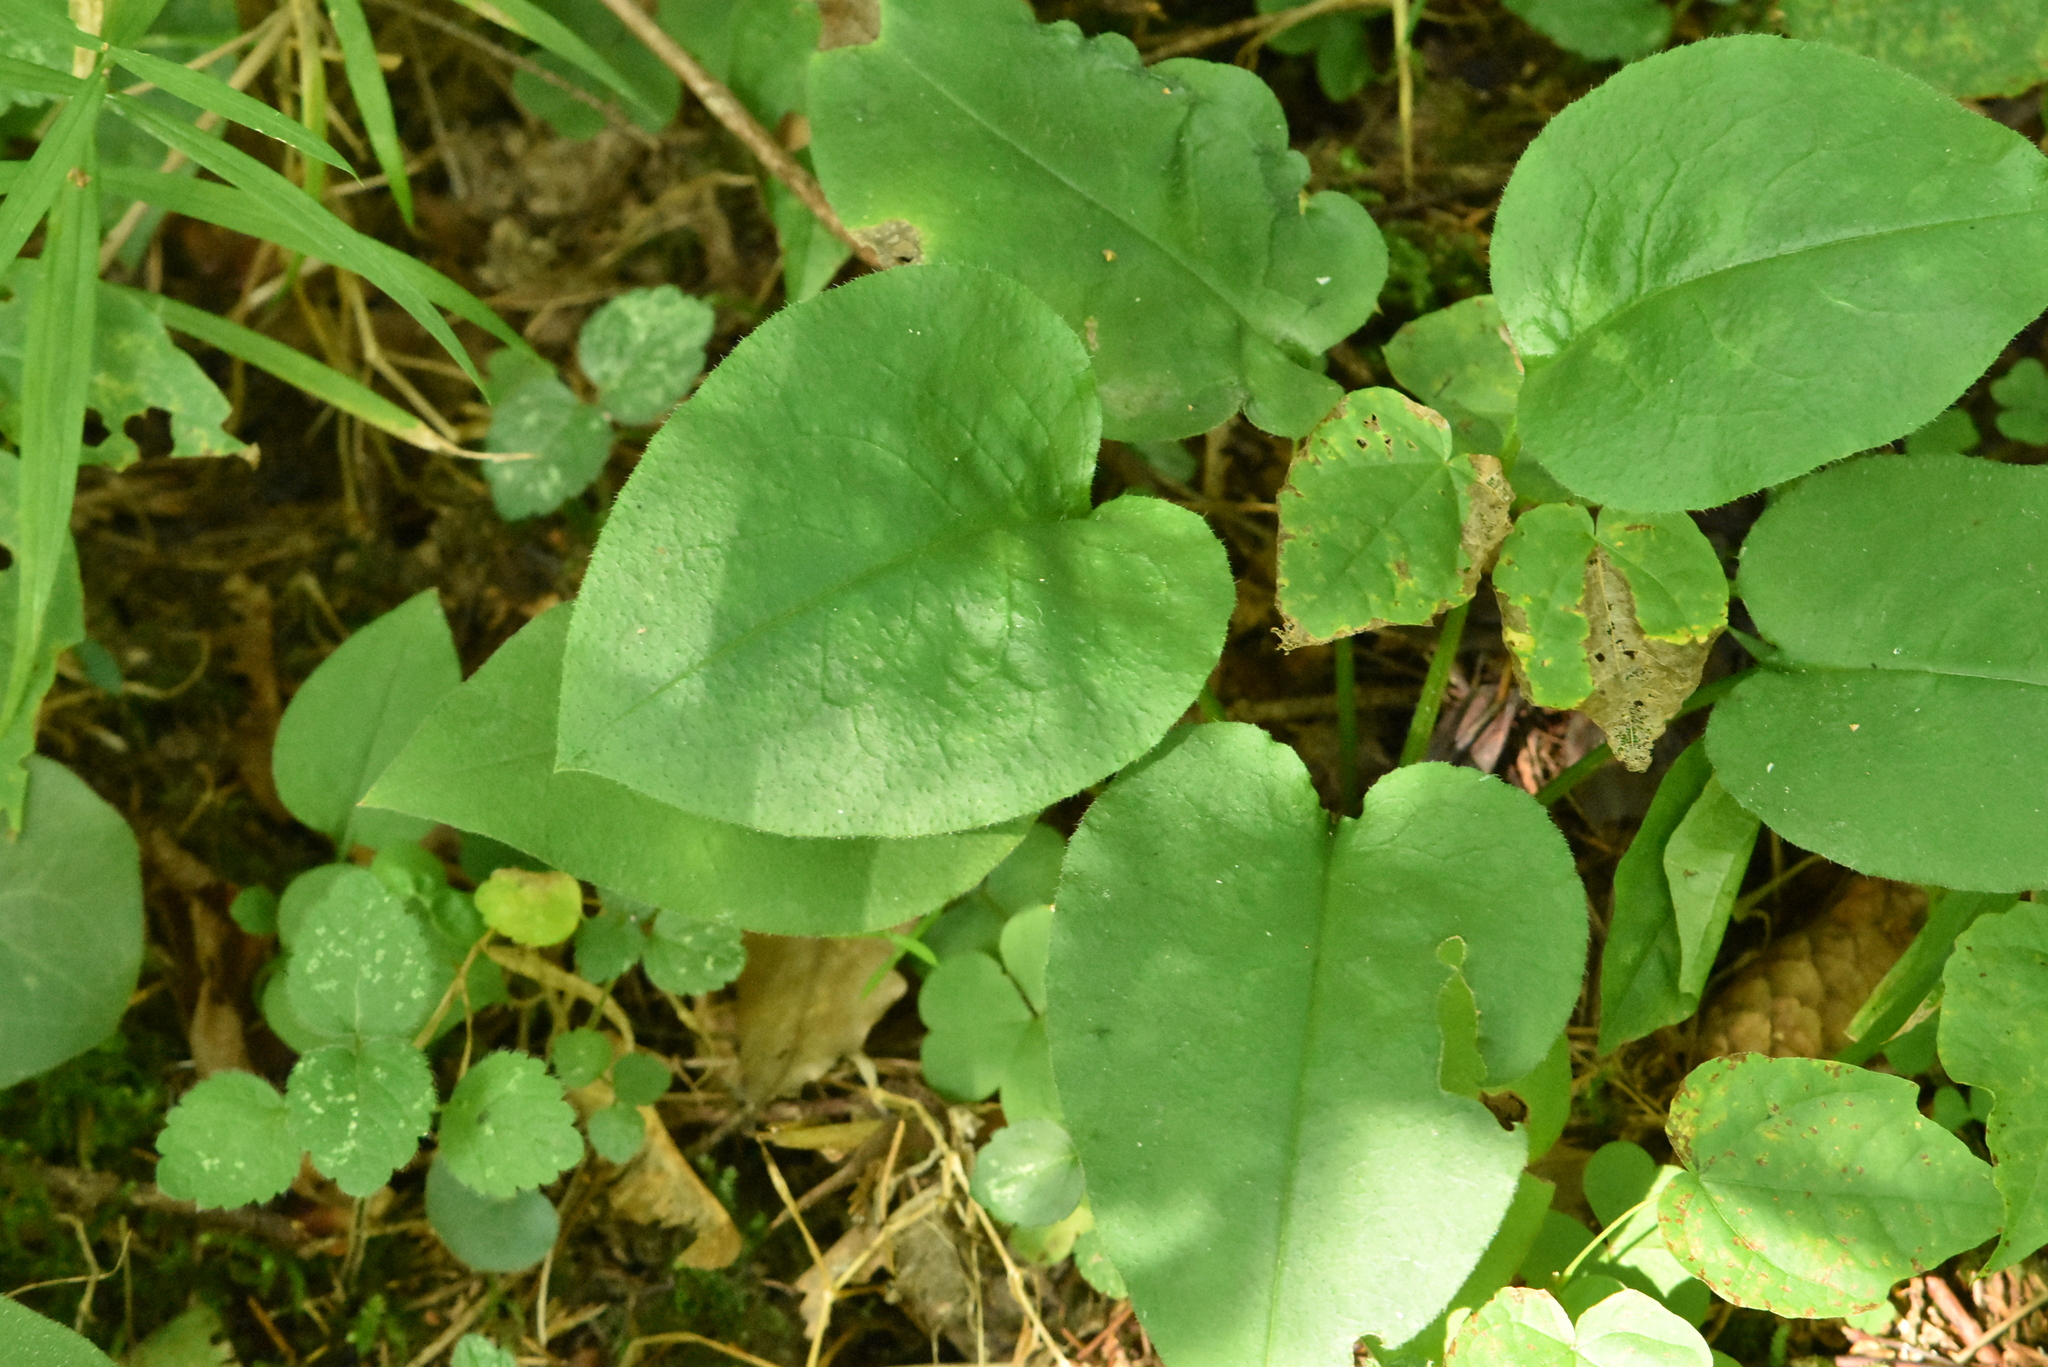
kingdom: Plantae
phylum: Tracheophyta
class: Magnoliopsida
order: Boraginales
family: Boraginaceae
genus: Pulmonaria
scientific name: Pulmonaria obscura
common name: Suffolk lungwort
